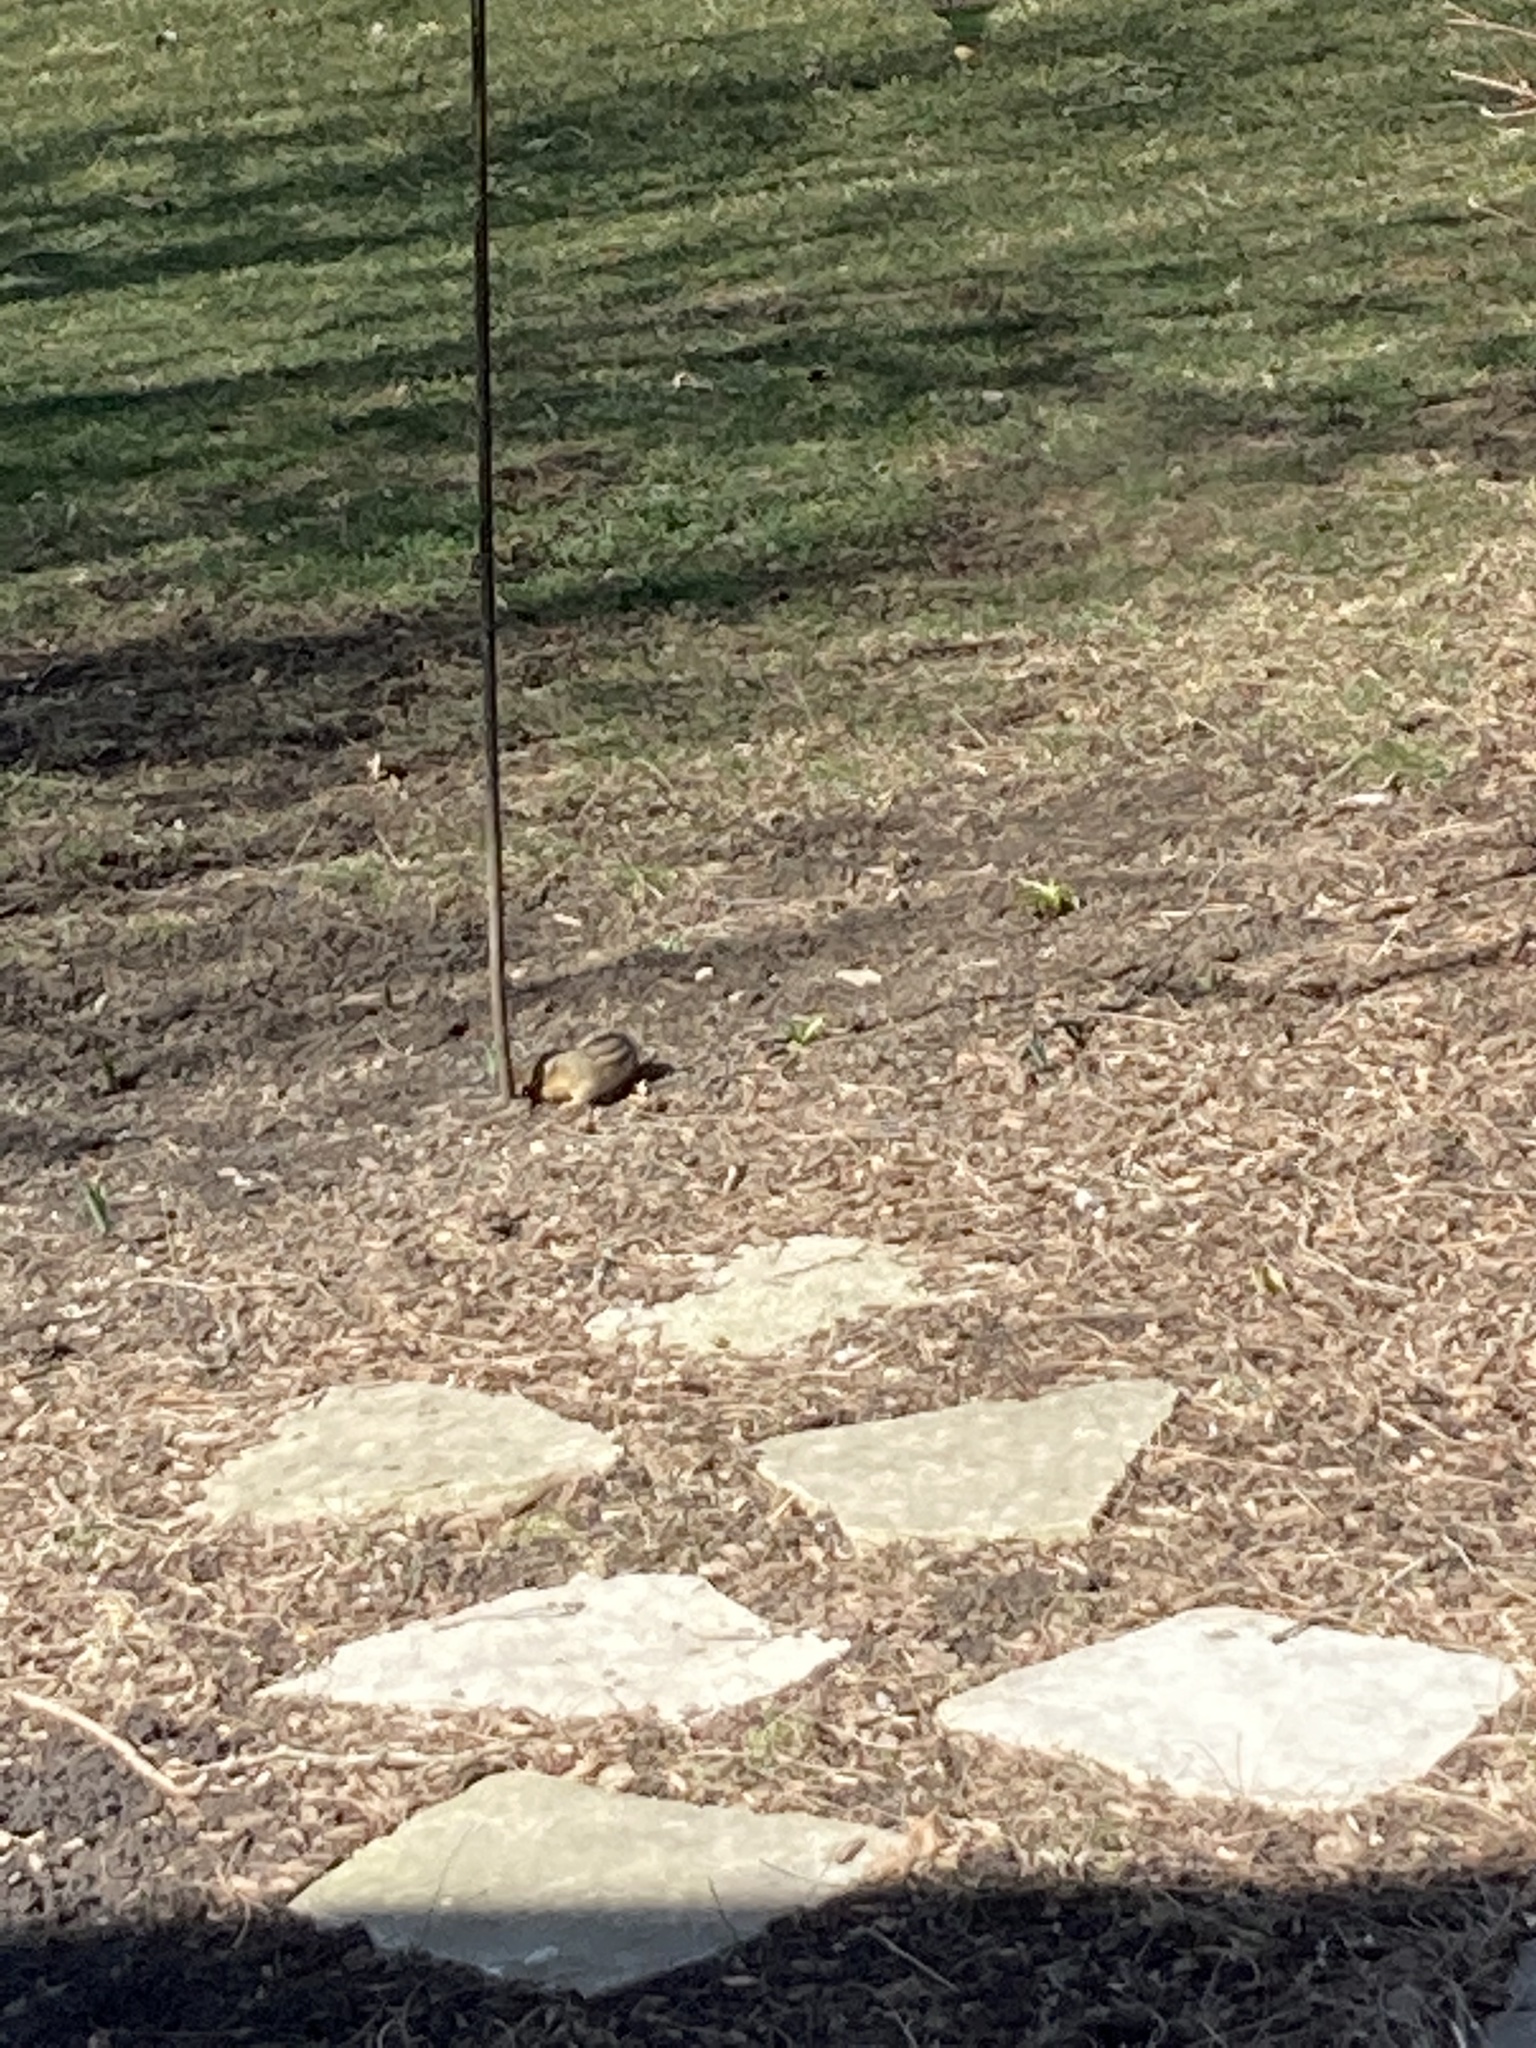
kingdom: Animalia
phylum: Chordata
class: Mammalia
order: Rodentia
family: Sciuridae
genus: Tamias
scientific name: Tamias striatus
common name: Eastern chipmunk
